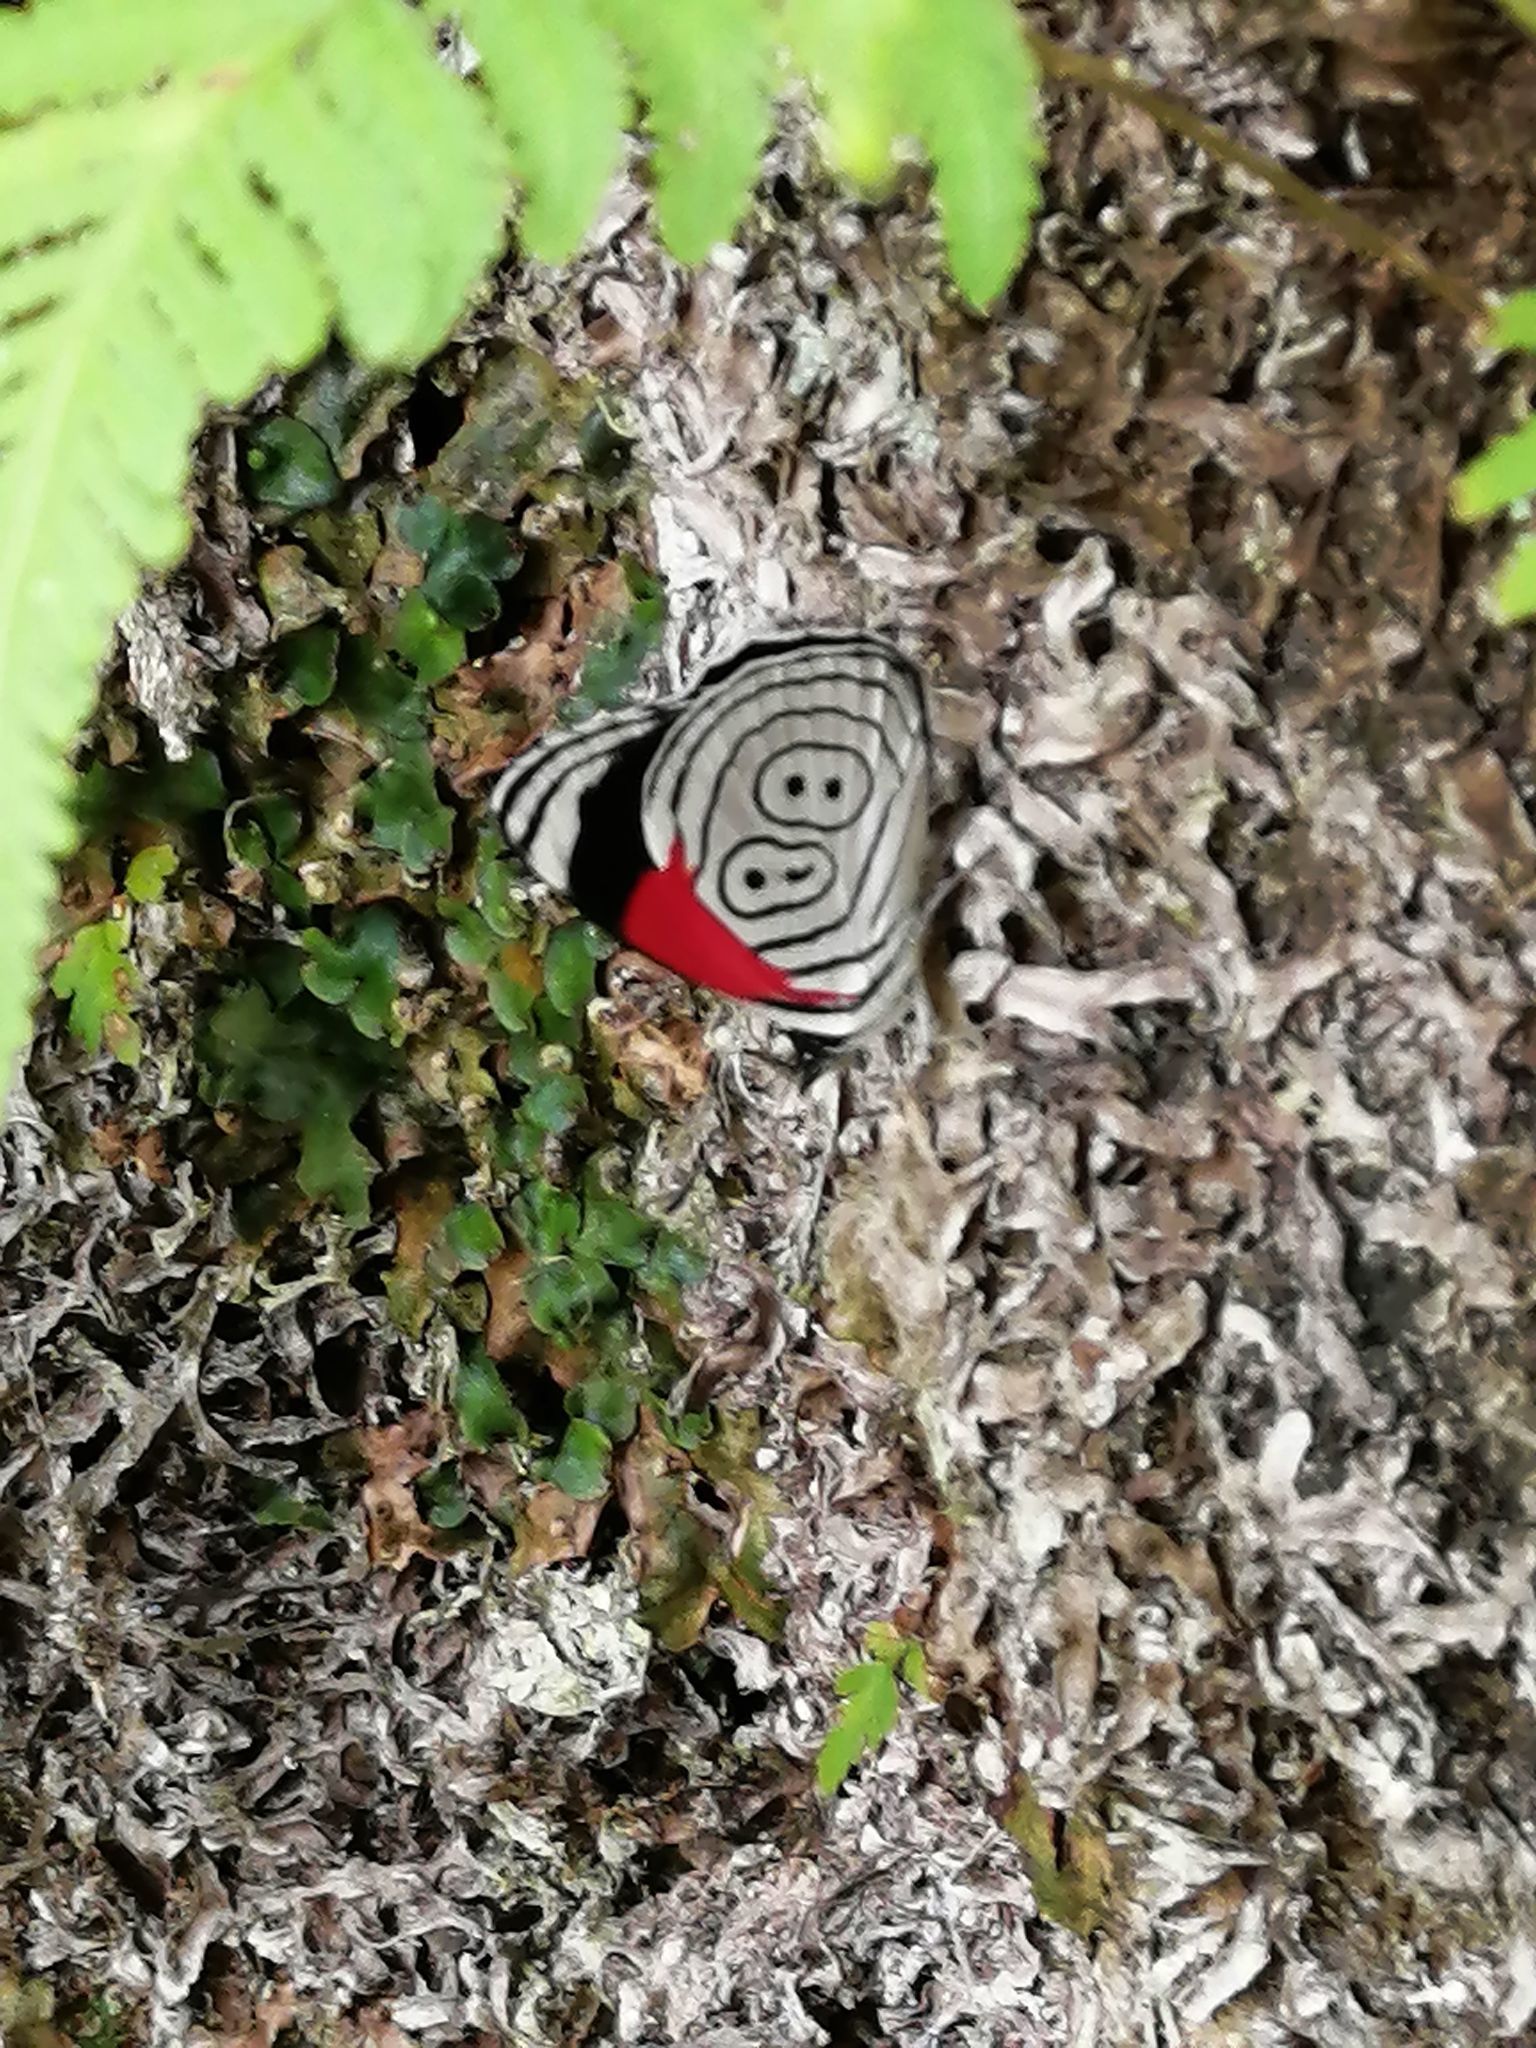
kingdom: Animalia
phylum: Arthropoda
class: Insecta
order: Lepidoptera
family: Nymphalidae
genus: Diaethria
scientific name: Diaethria anna
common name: Anna’s eighty-eight
